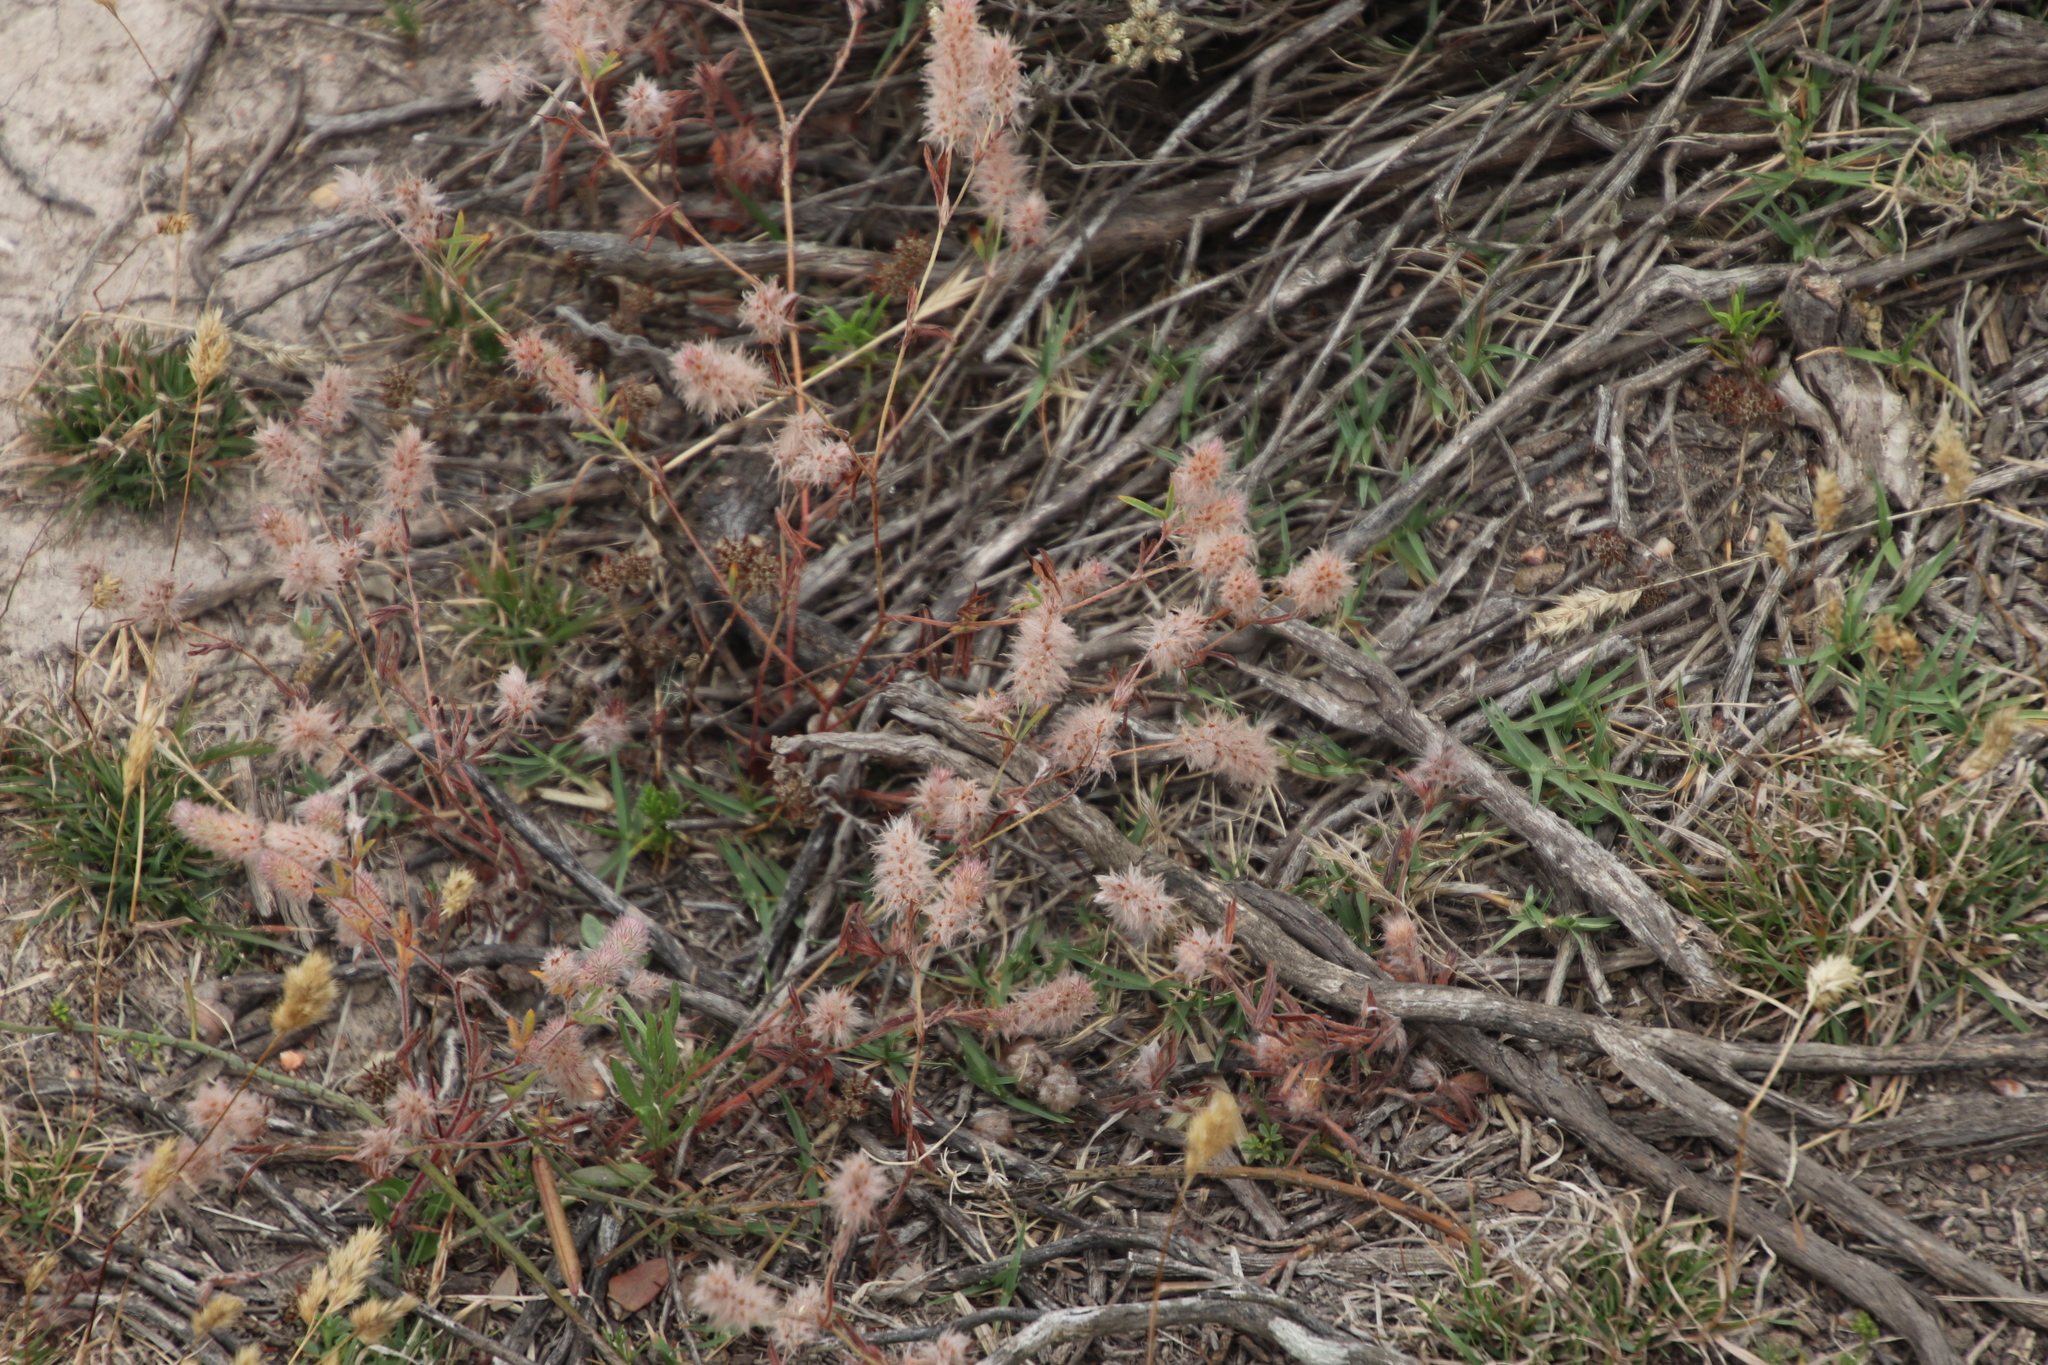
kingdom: Plantae
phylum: Tracheophyta
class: Magnoliopsida
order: Fabales
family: Fabaceae
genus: Trifolium
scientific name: Trifolium angustifolium
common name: Narrow clover
